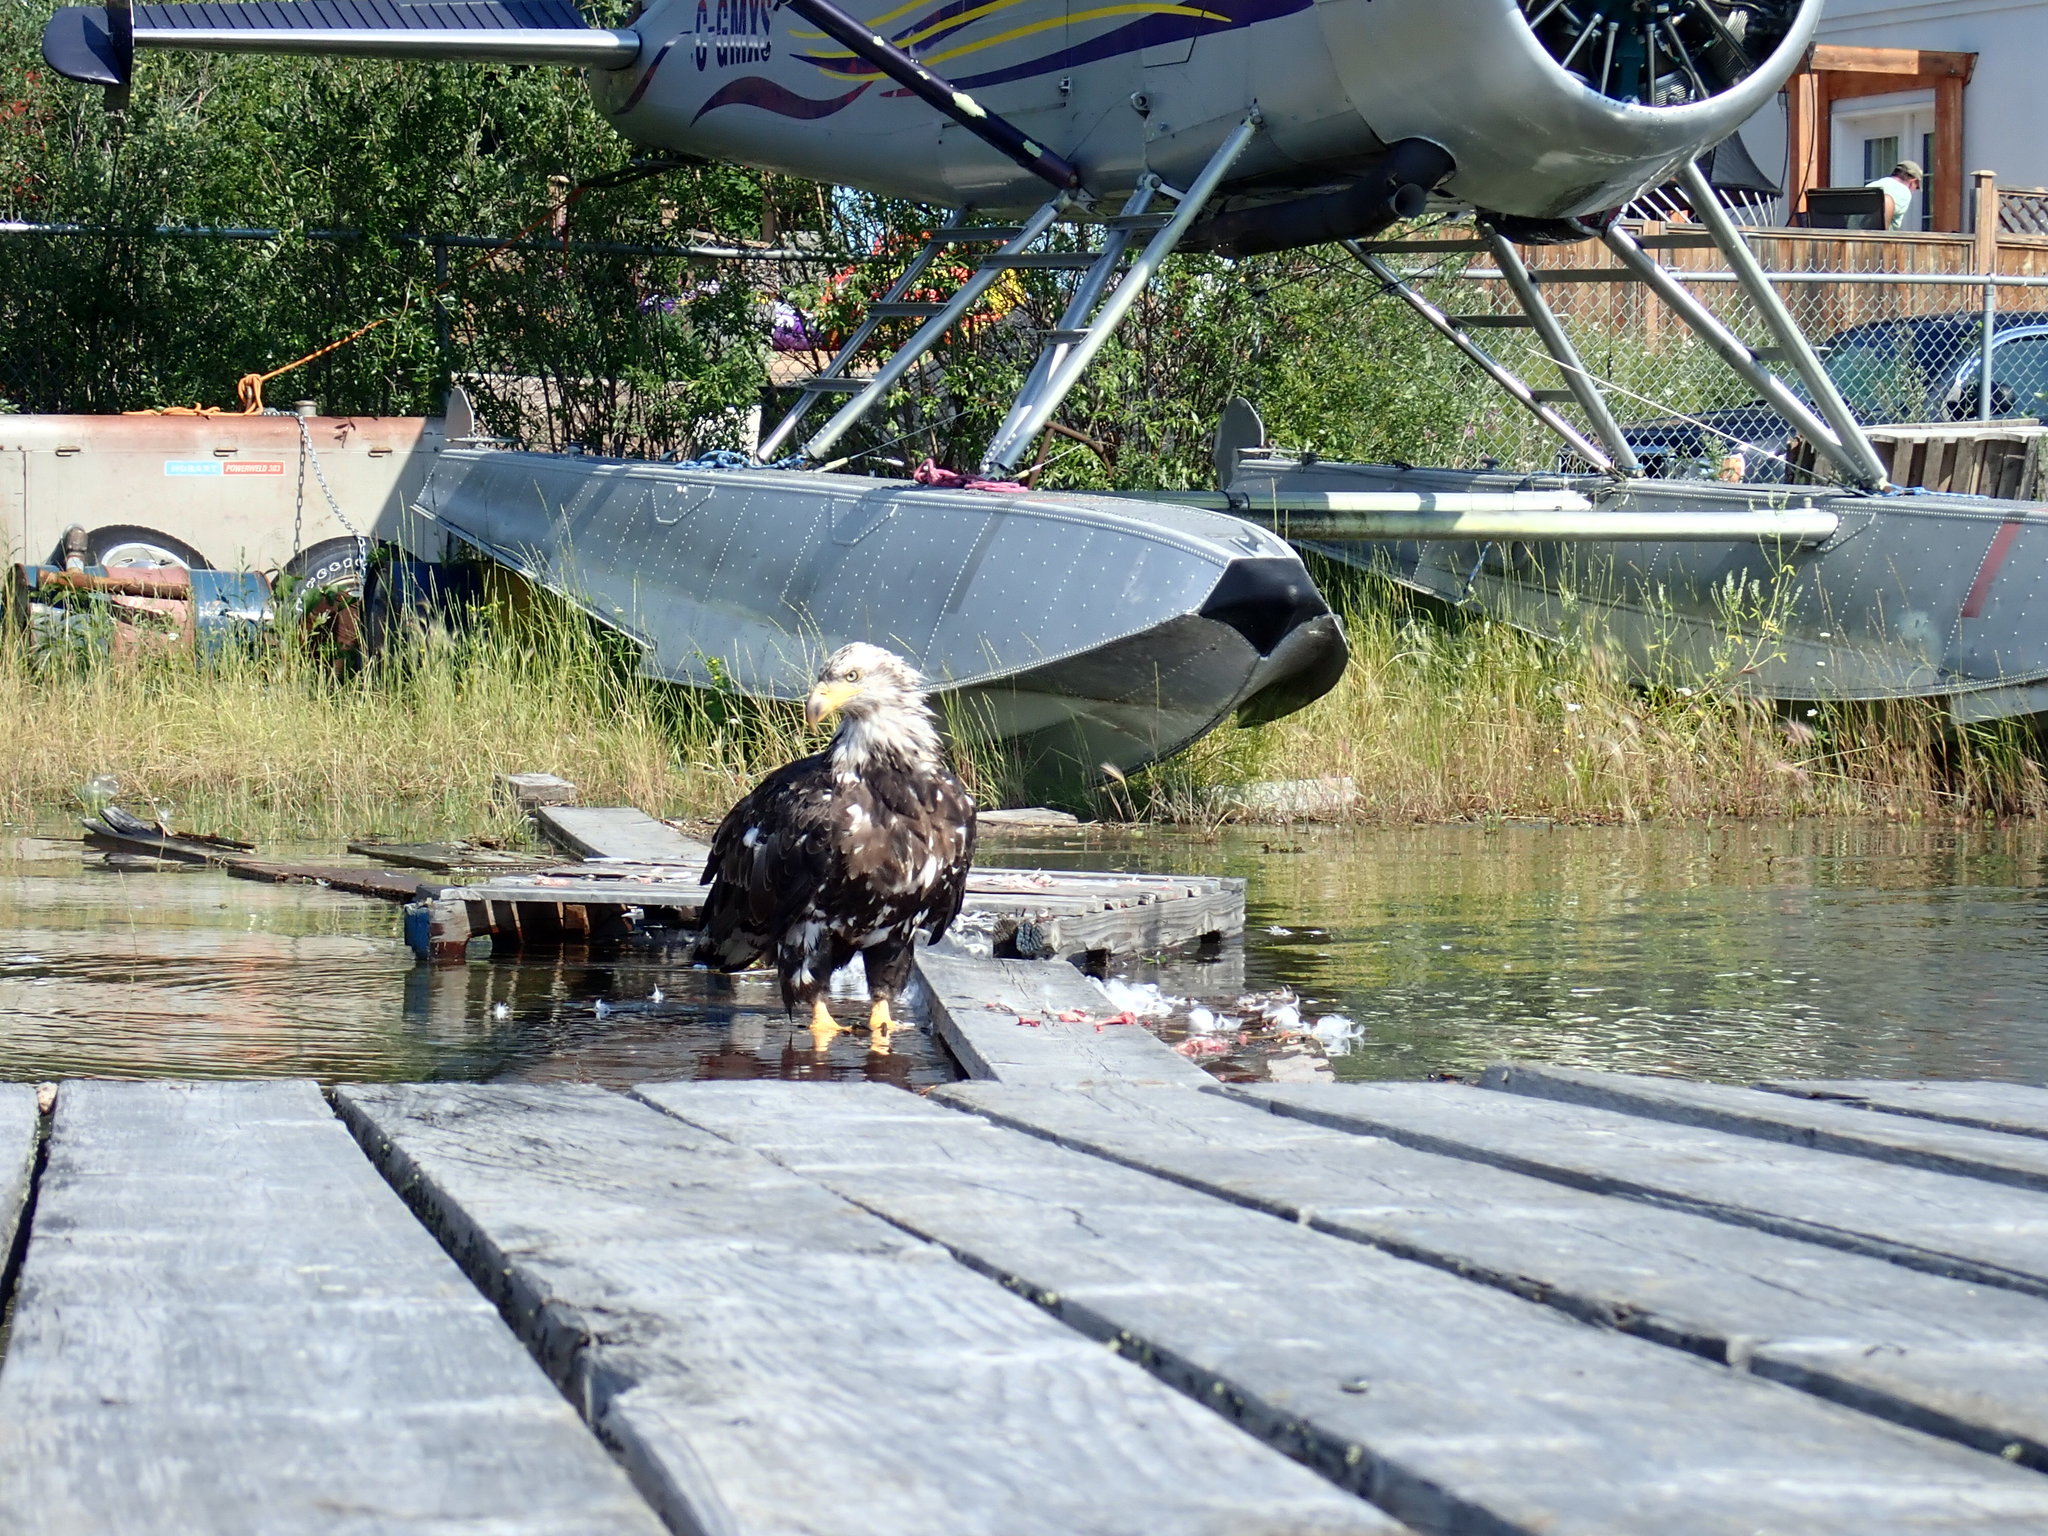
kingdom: Animalia
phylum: Chordata
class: Aves
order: Accipitriformes
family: Accipitridae
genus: Haliaeetus
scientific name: Haliaeetus leucocephalus
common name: Bald eagle
